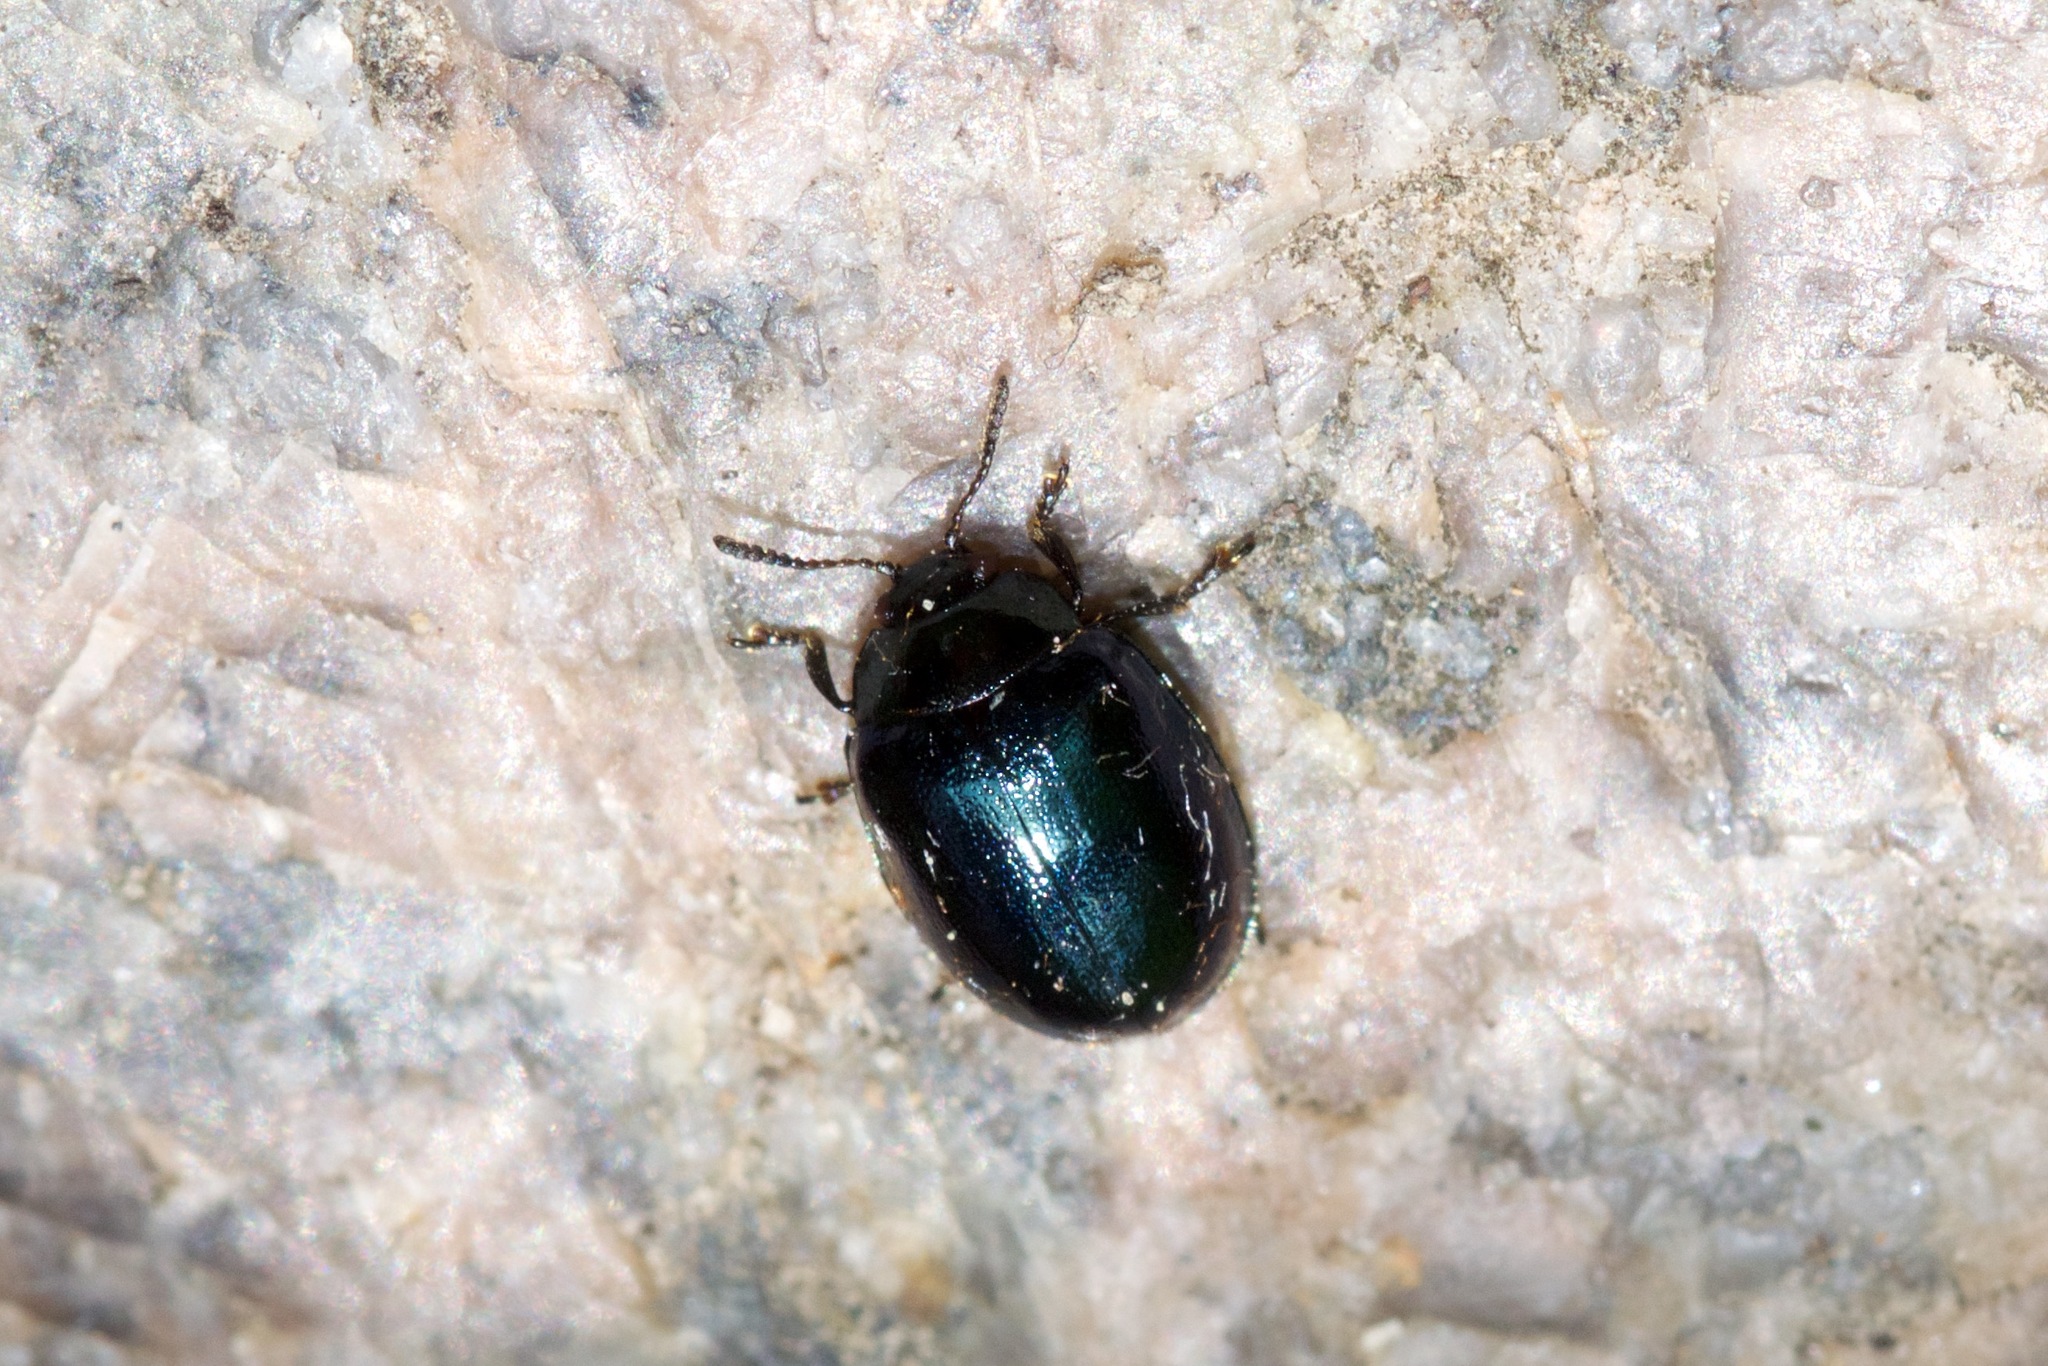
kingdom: Animalia
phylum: Arthropoda
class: Insecta
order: Coleoptera
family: Chrysomelidae
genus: Plagiodera
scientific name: Plagiodera versicolora
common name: Imported willow leaf beetle
